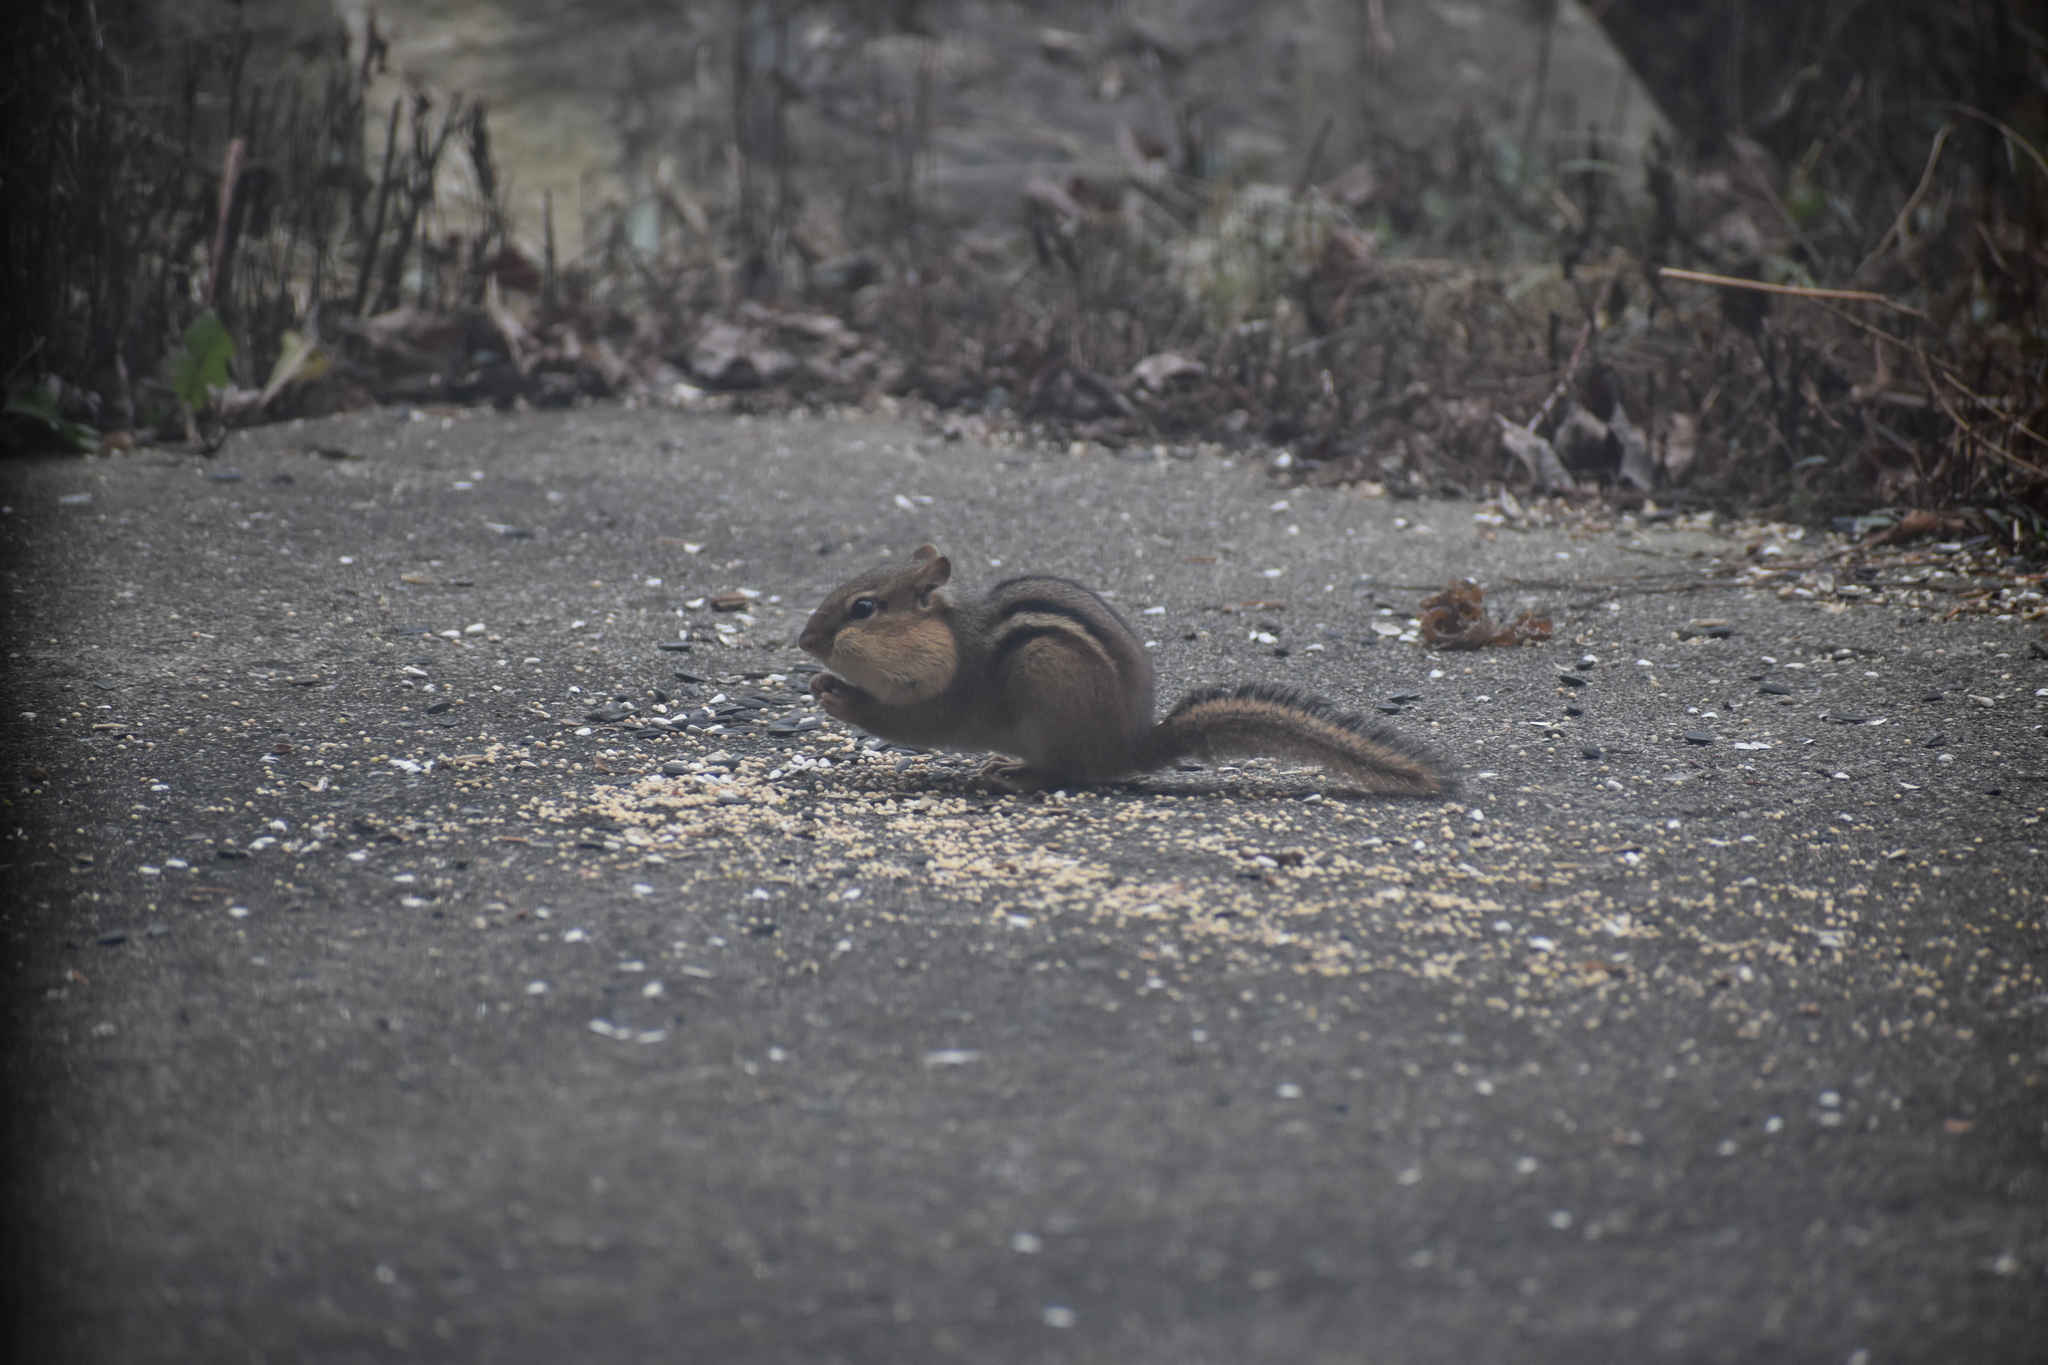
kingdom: Animalia
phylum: Chordata
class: Mammalia
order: Rodentia
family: Sciuridae
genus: Tamias
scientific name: Tamias striatus
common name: Eastern chipmunk
